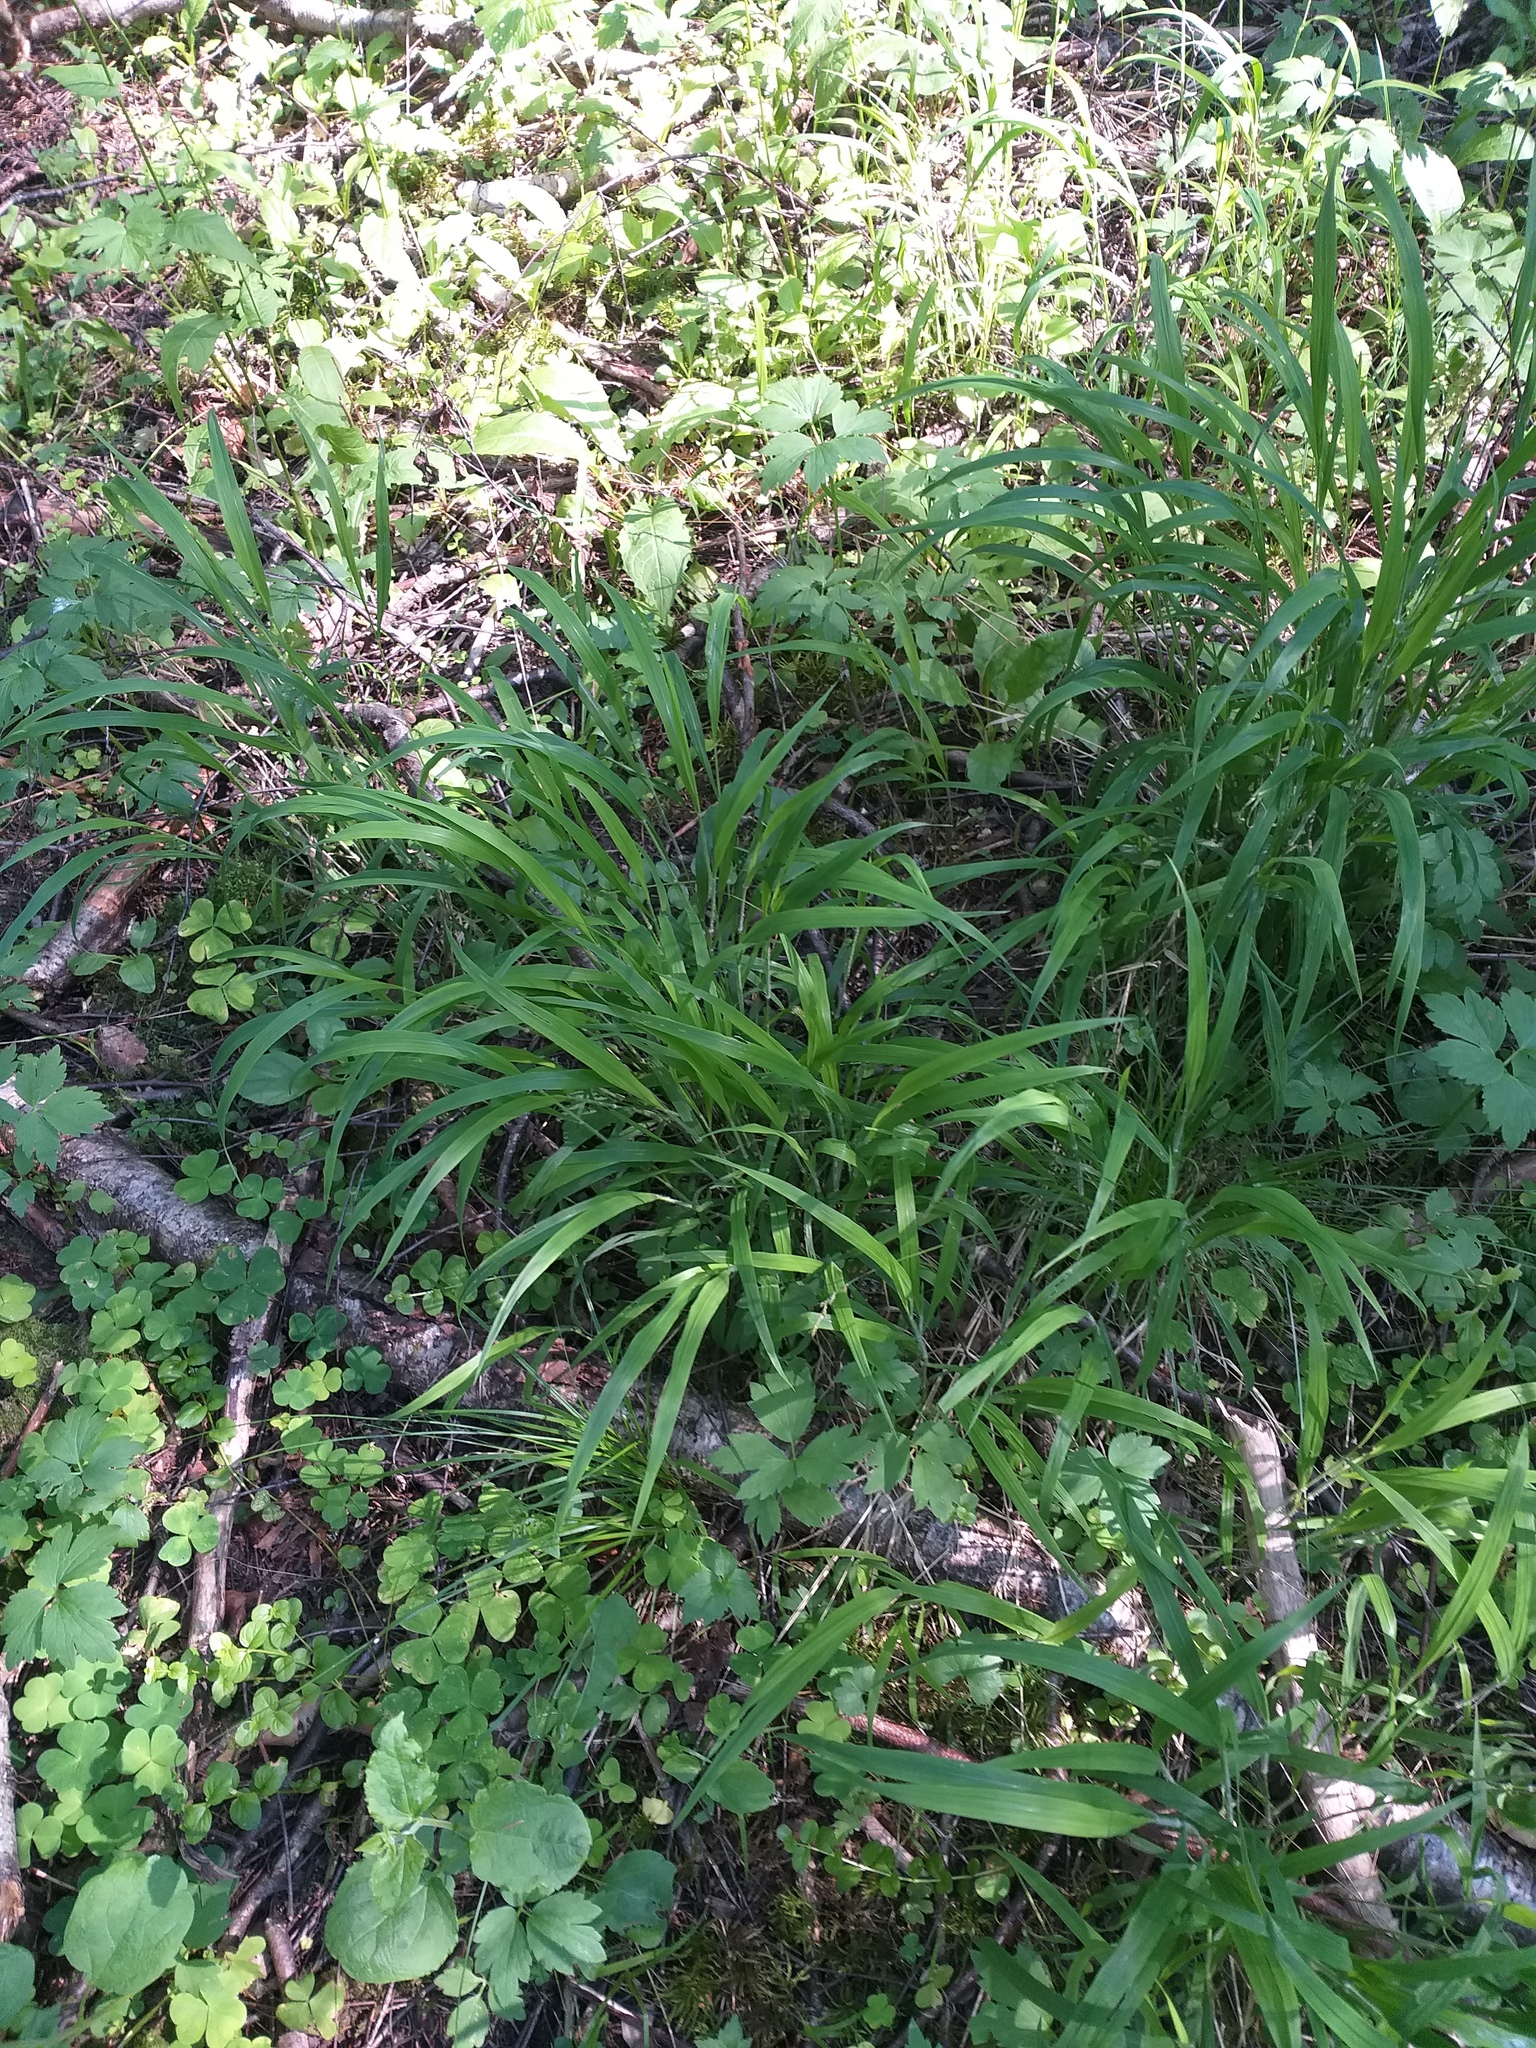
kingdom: Plantae
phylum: Tracheophyta
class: Liliopsida
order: Poales
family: Poaceae
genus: Brachypodium
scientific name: Brachypodium sylvaticum
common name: False-brome
